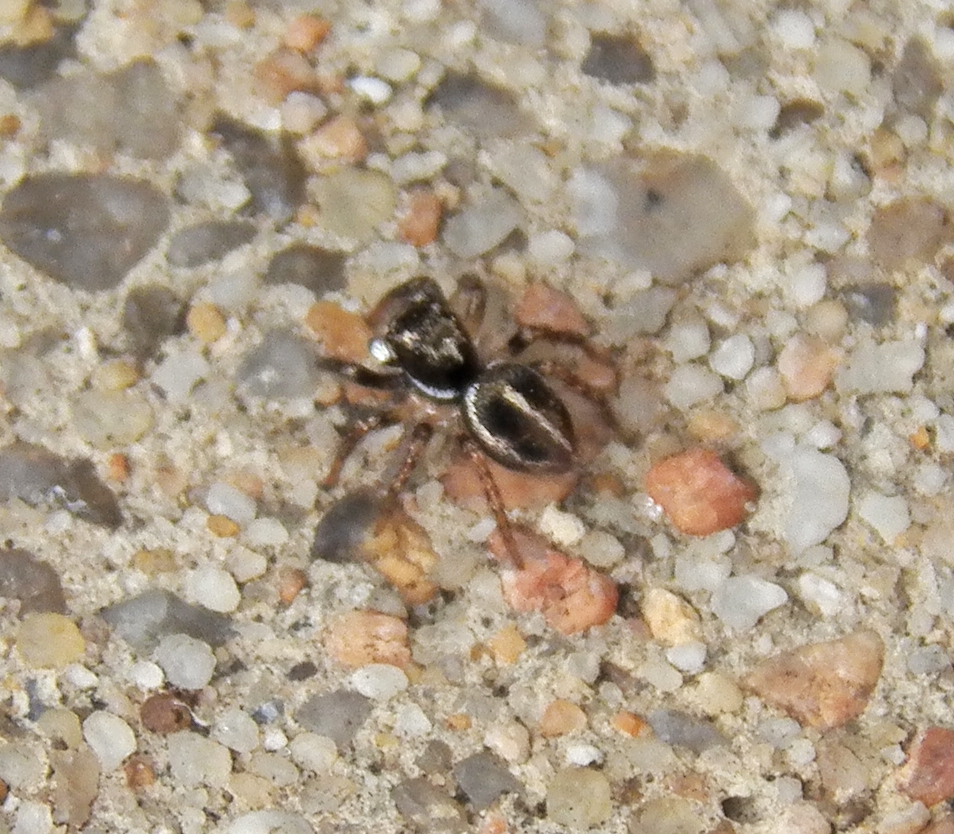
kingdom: Animalia
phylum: Arthropoda
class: Arachnida
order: Araneae
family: Salticidae
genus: Anasaitis
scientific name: Anasaitis canosa
